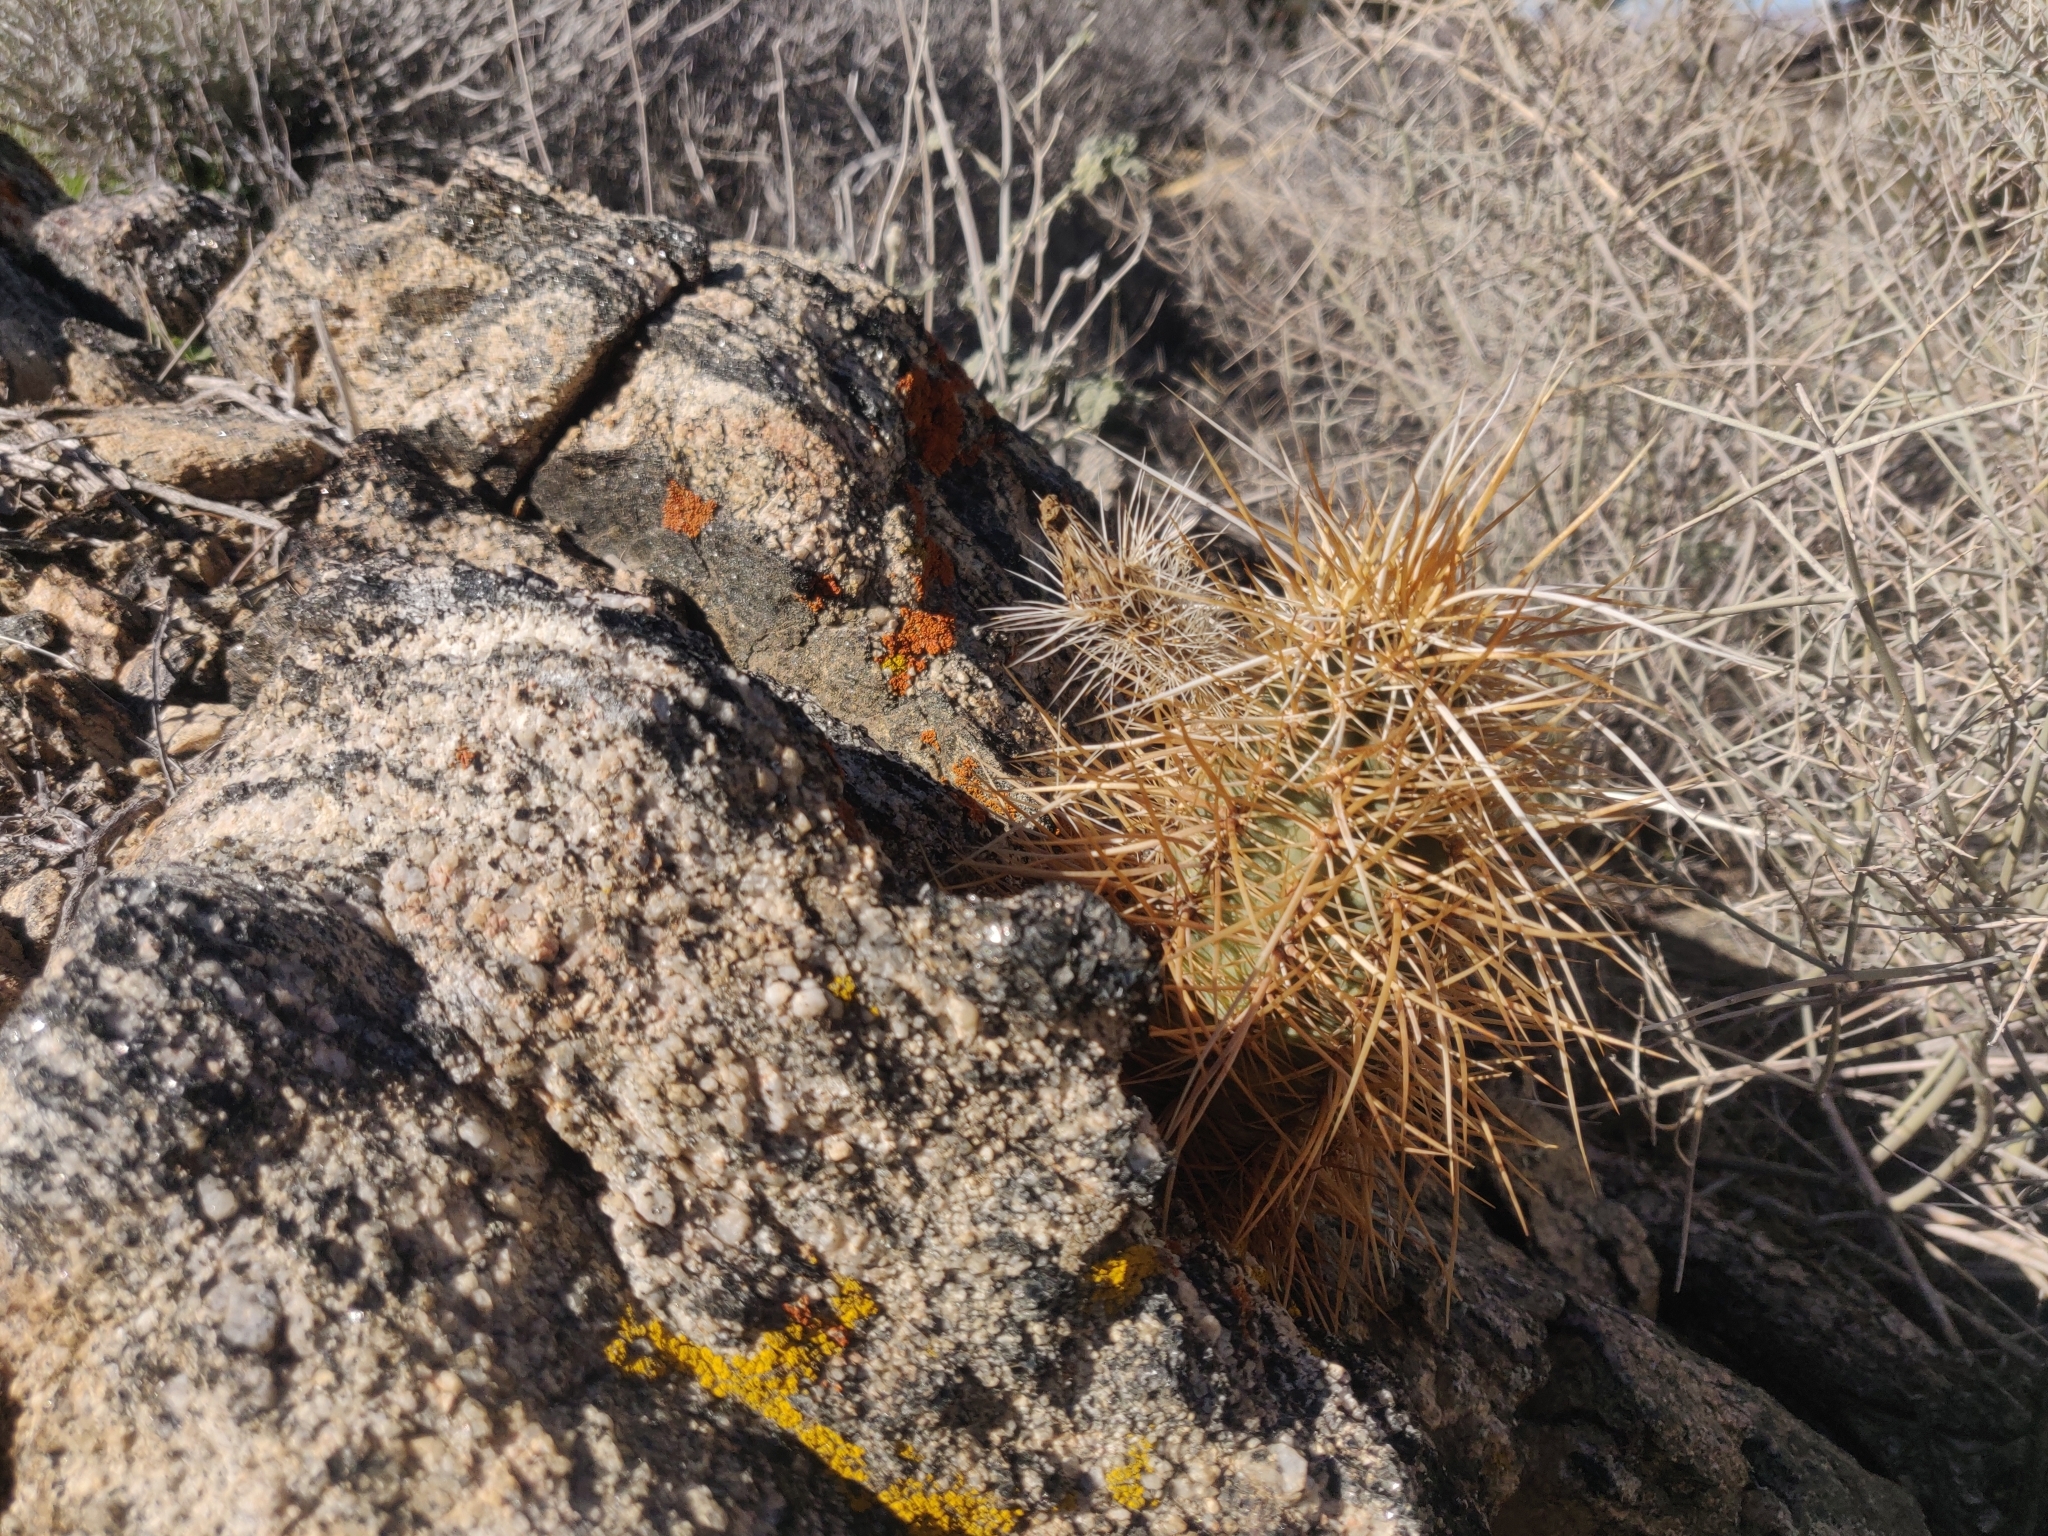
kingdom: Plantae
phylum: Tracheophyta
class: Magnoliopsida
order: Caryophyllales
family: Cactaceae
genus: Echinocereus
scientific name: Echinocereus engelmannii
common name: Engelmann's hedgehog cactus
